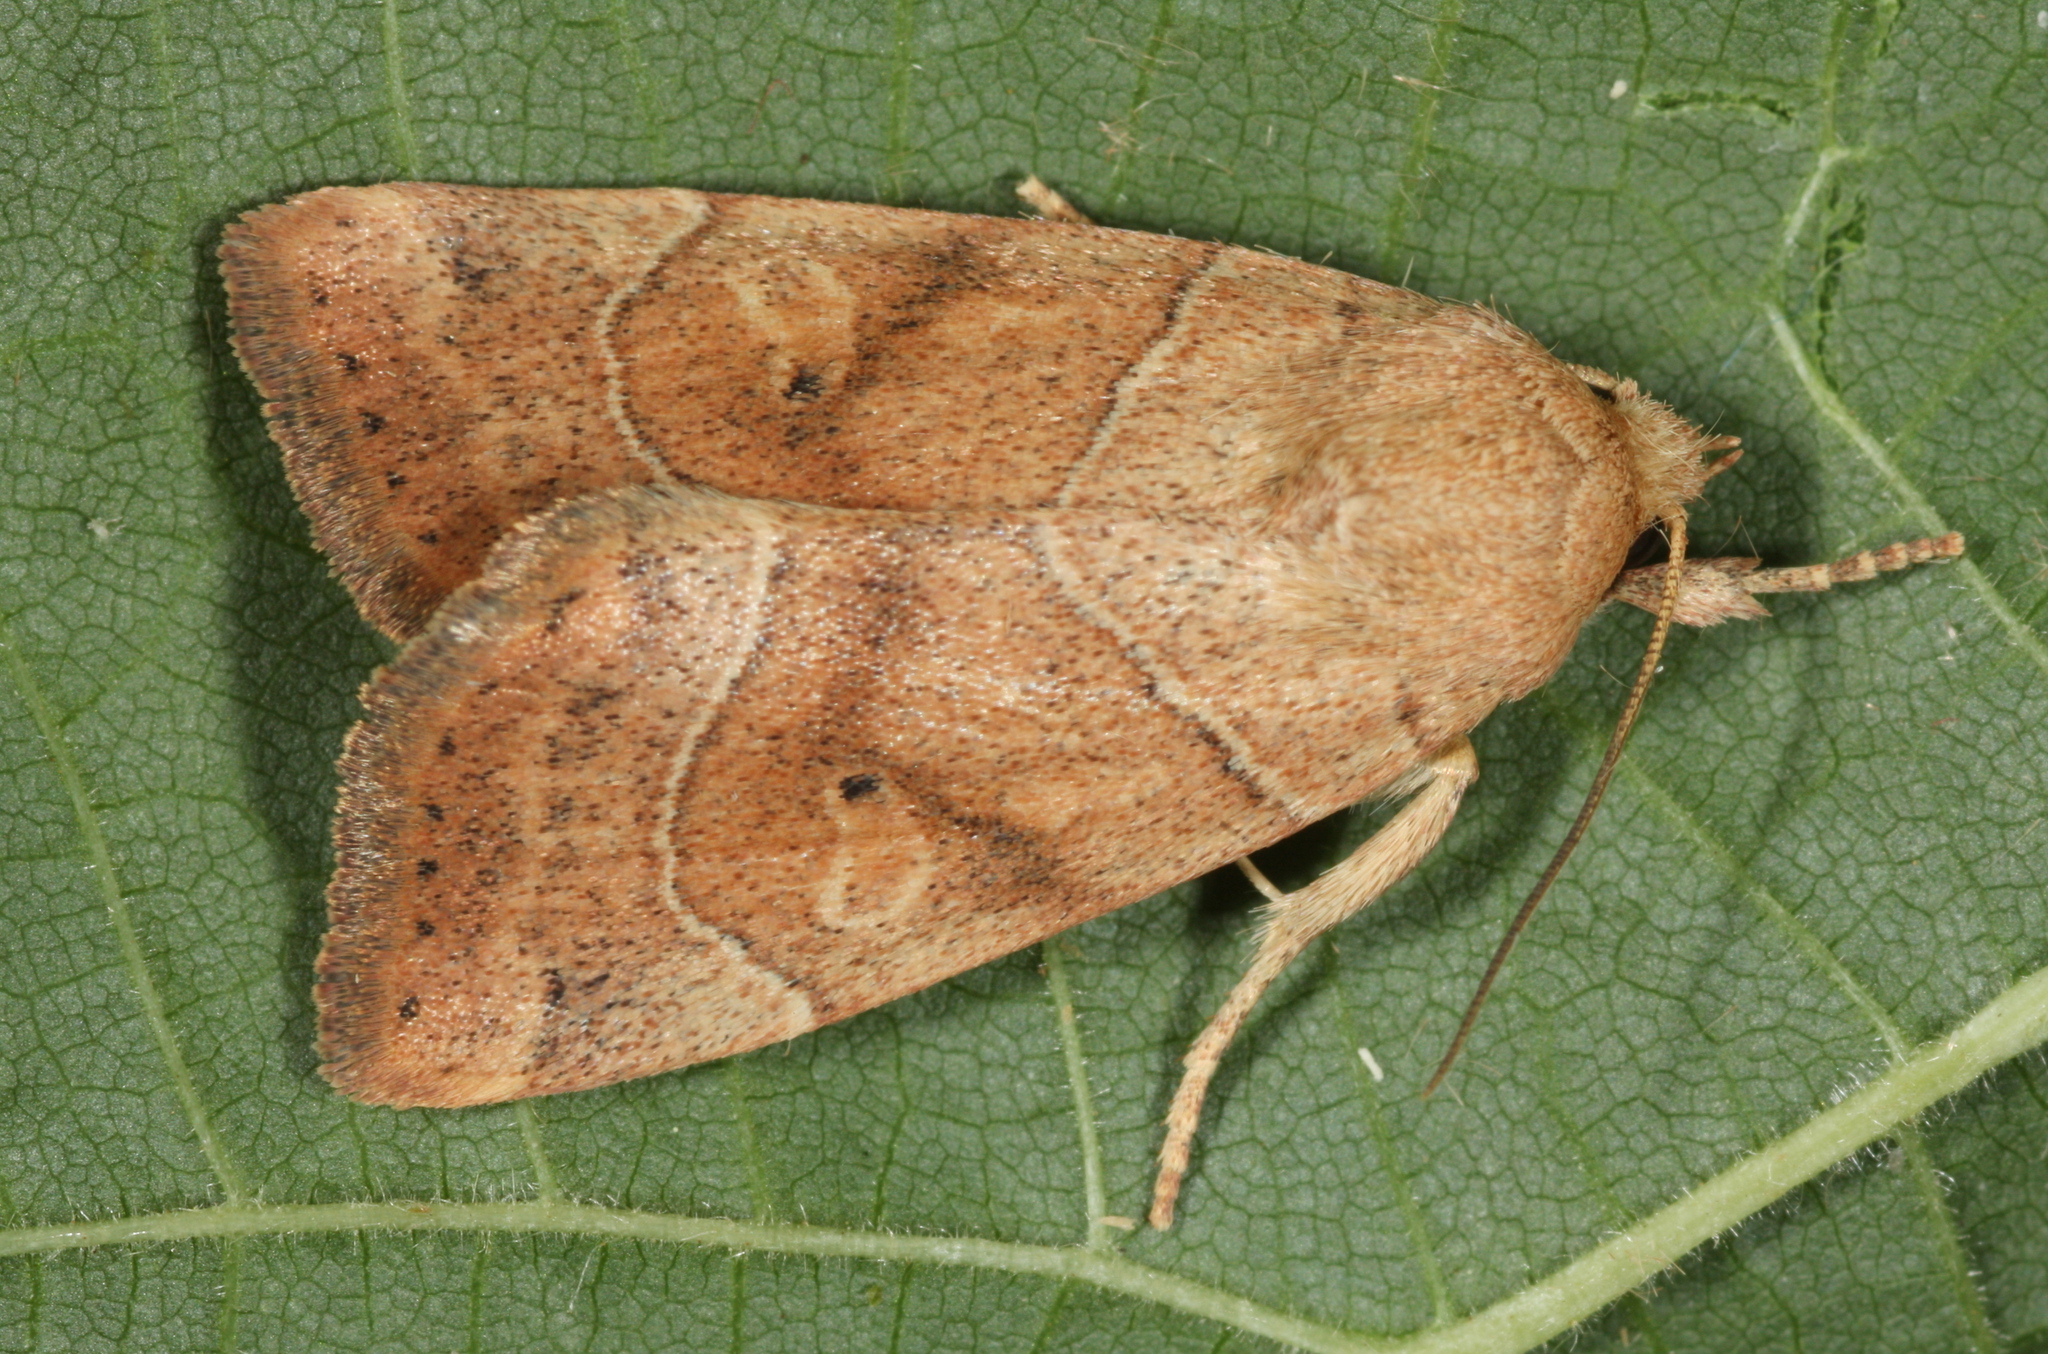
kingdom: Animalia
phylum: Arthropoda
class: Insecta
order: Lepidoptera
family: Noctuidae
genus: Cosmia
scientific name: Cosmia trapezina
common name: Dun-bar
